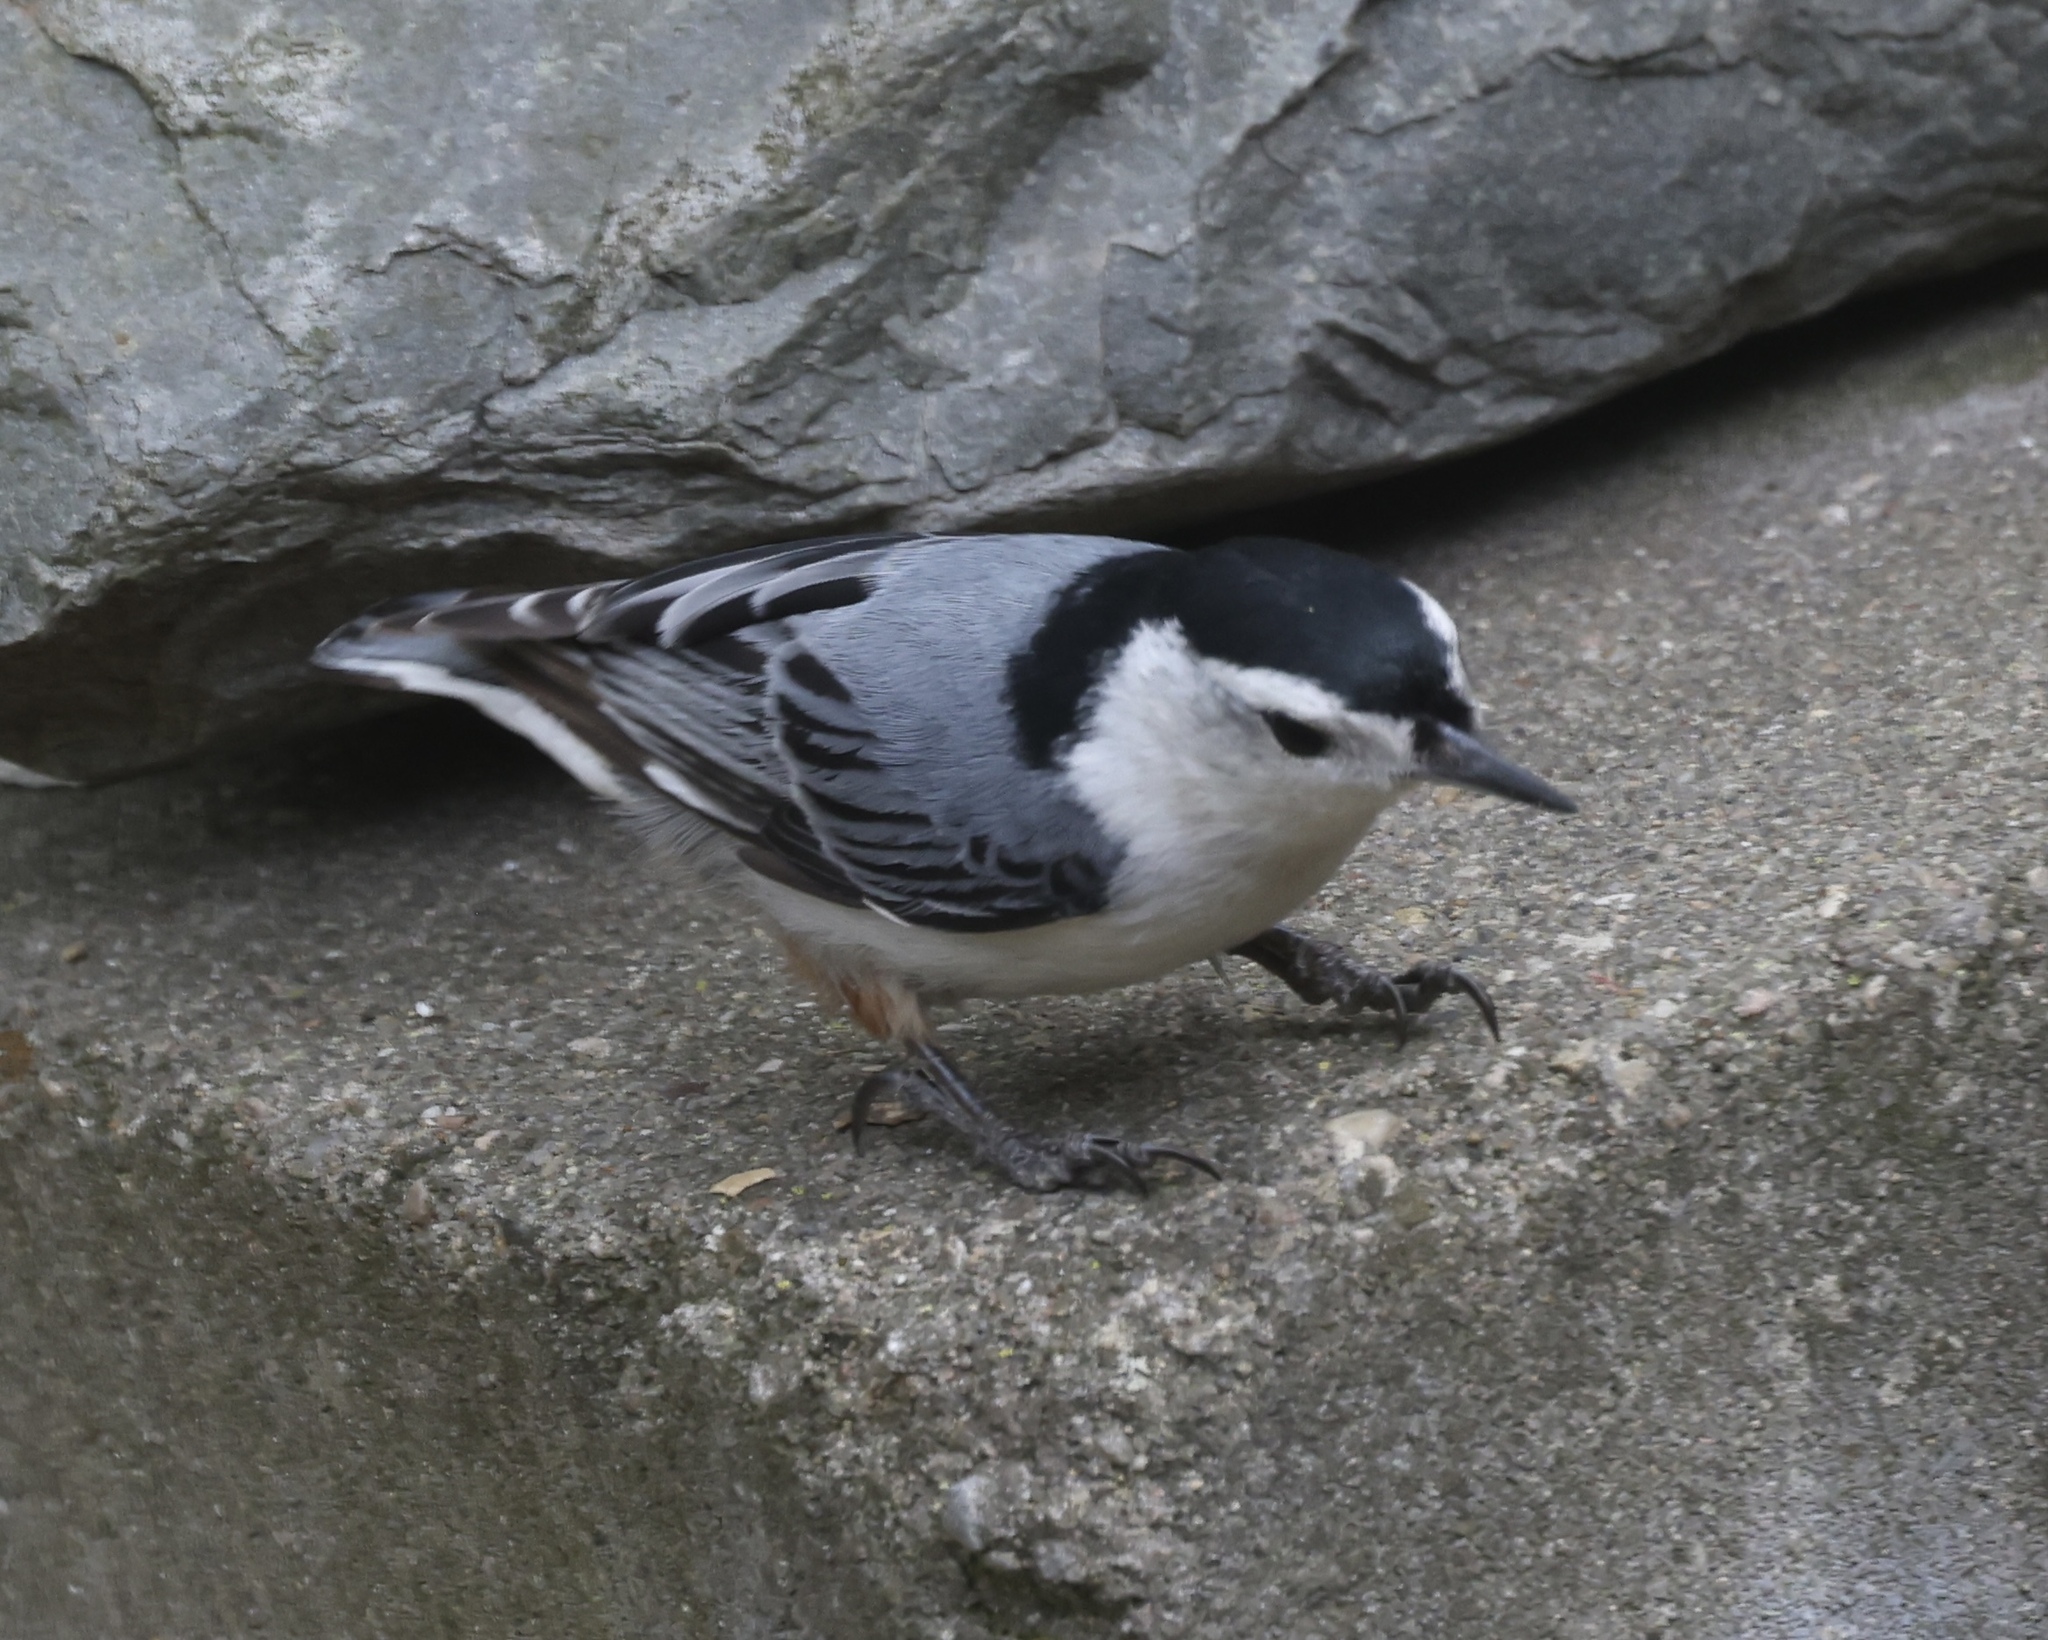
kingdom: Animalia
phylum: Chordata
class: Aves
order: Passeriformes
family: Sittidae
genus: Sitta
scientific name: Sitta carolinensis
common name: White-breasted nuthatch
